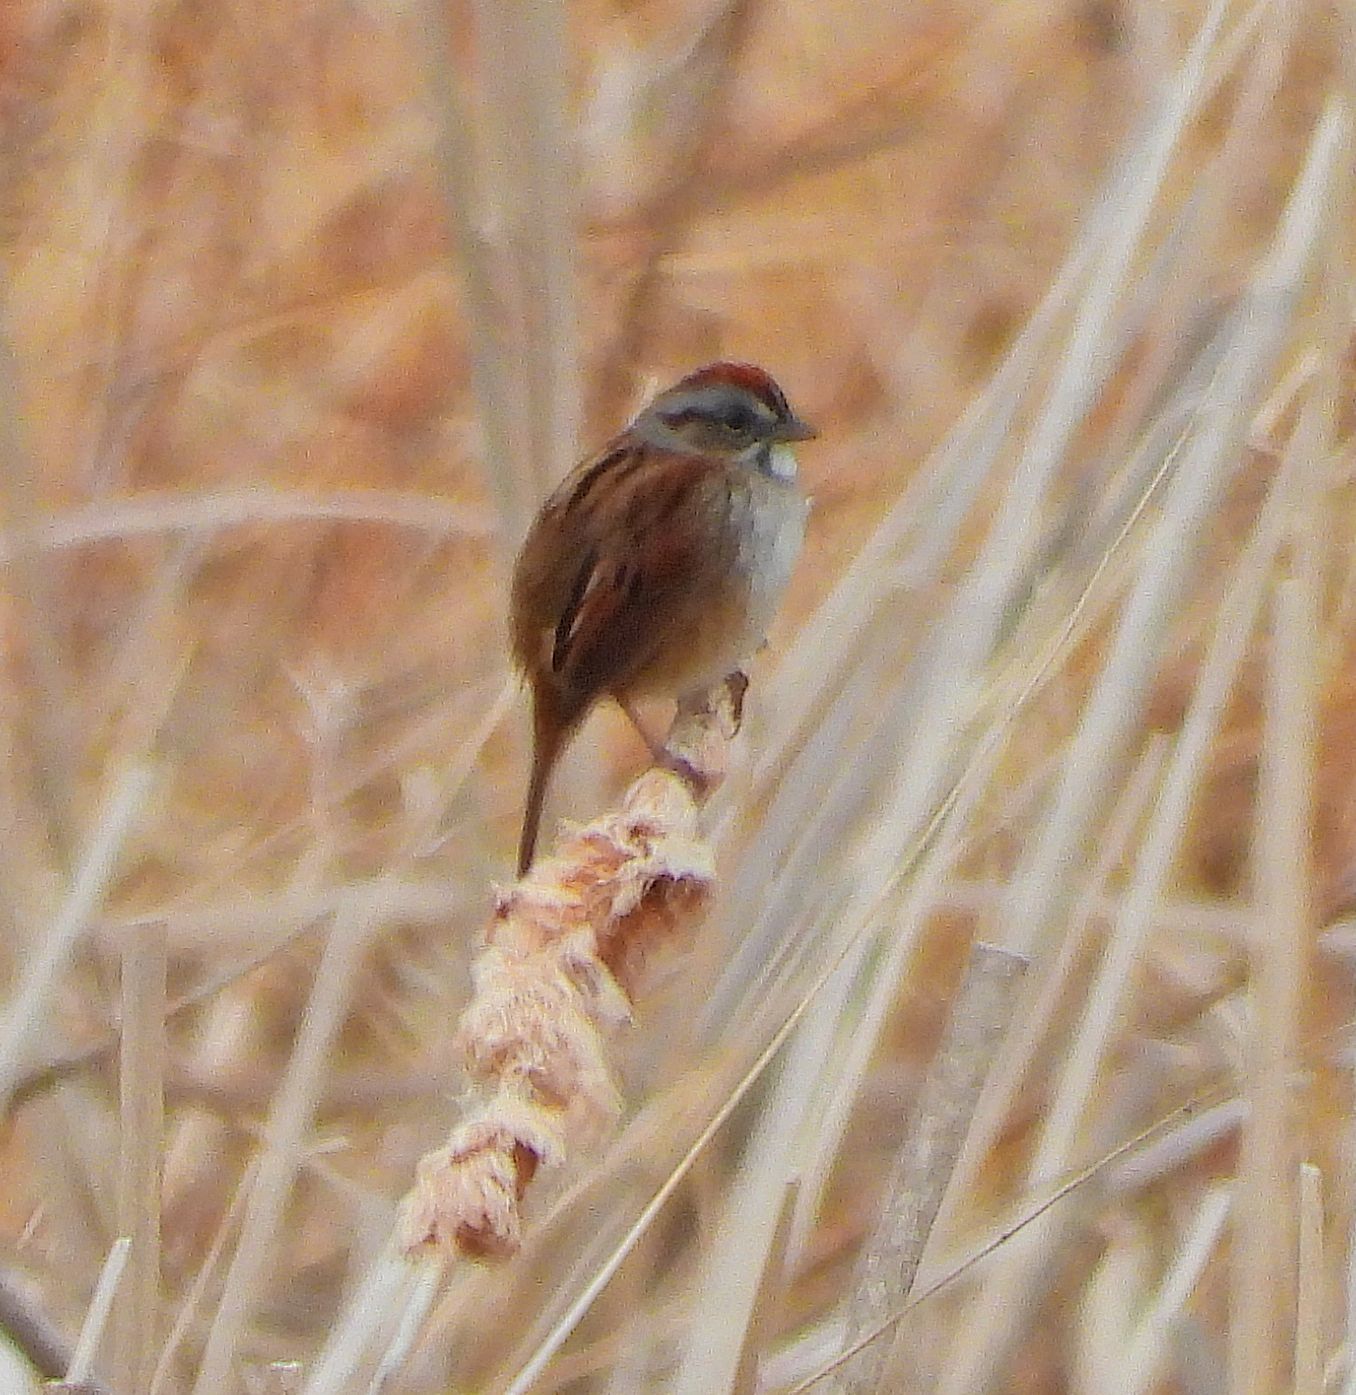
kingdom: Animalia
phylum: Chordata
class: Aves
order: Passeriformes
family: Passerellidae
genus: Melospiza
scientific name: Melospiza georgiana
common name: Swamp sparrow
